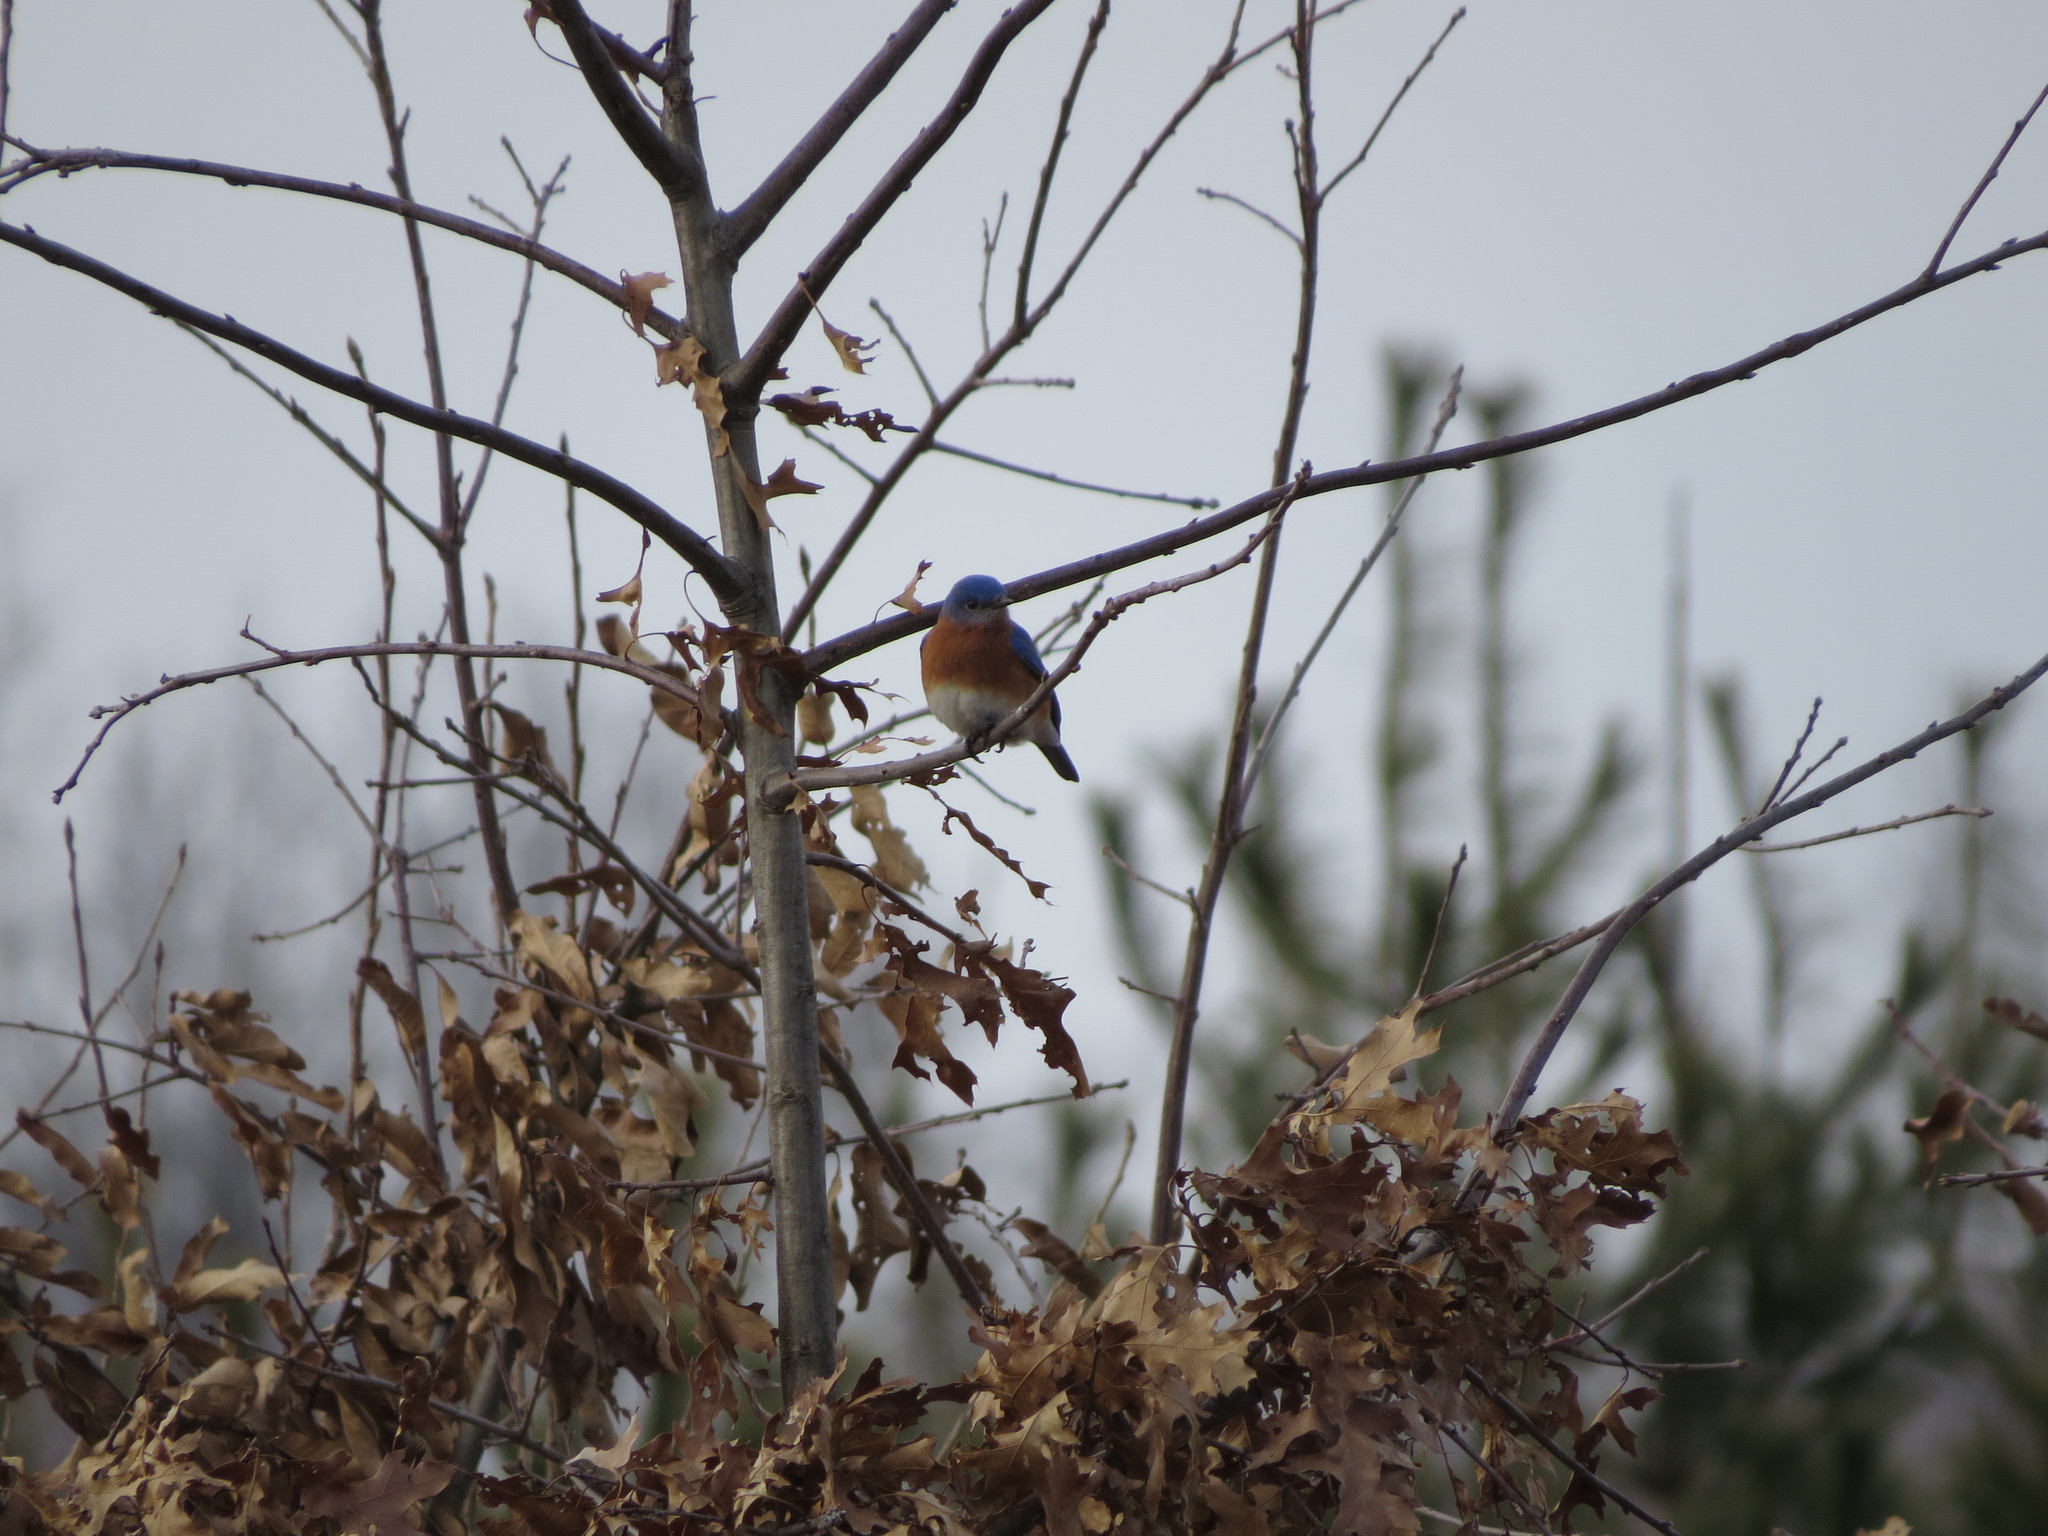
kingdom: Animalia
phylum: Chordata
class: Aves
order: Passeriformes
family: Turdidae
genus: Sialia
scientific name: Sialia sialis
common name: Eastern bluebird
